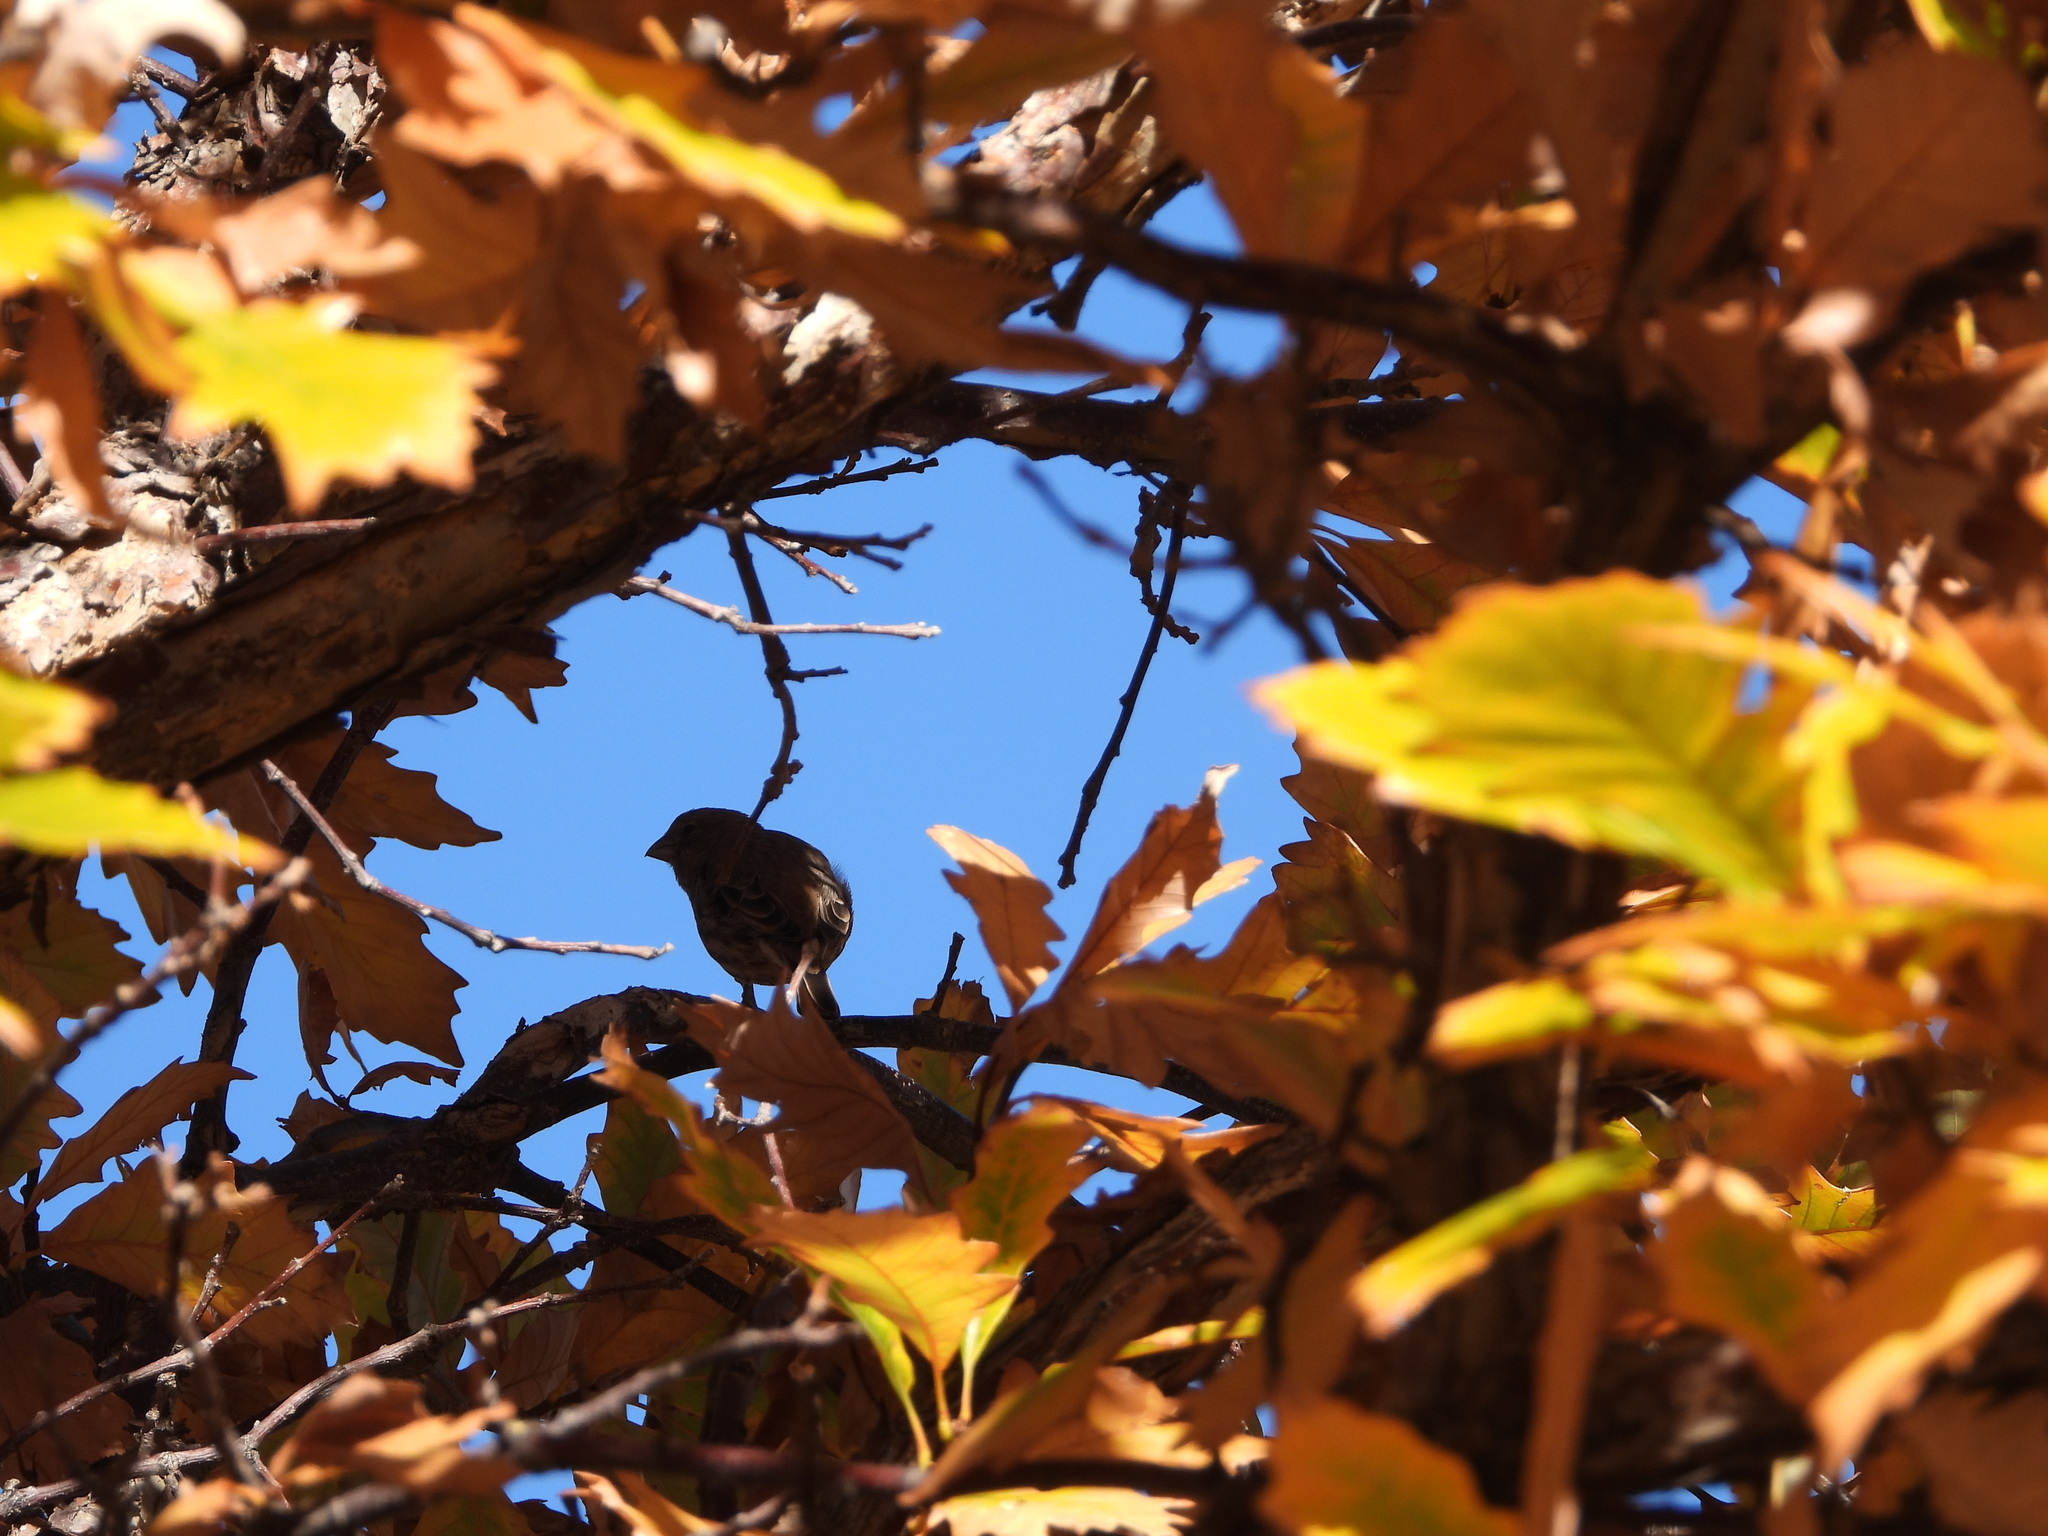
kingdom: Animalia
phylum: Chordata
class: Aves
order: Passeriformes
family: Fringillidae
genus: Haemorhous
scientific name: Haemorhous mexicanus
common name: House finch
